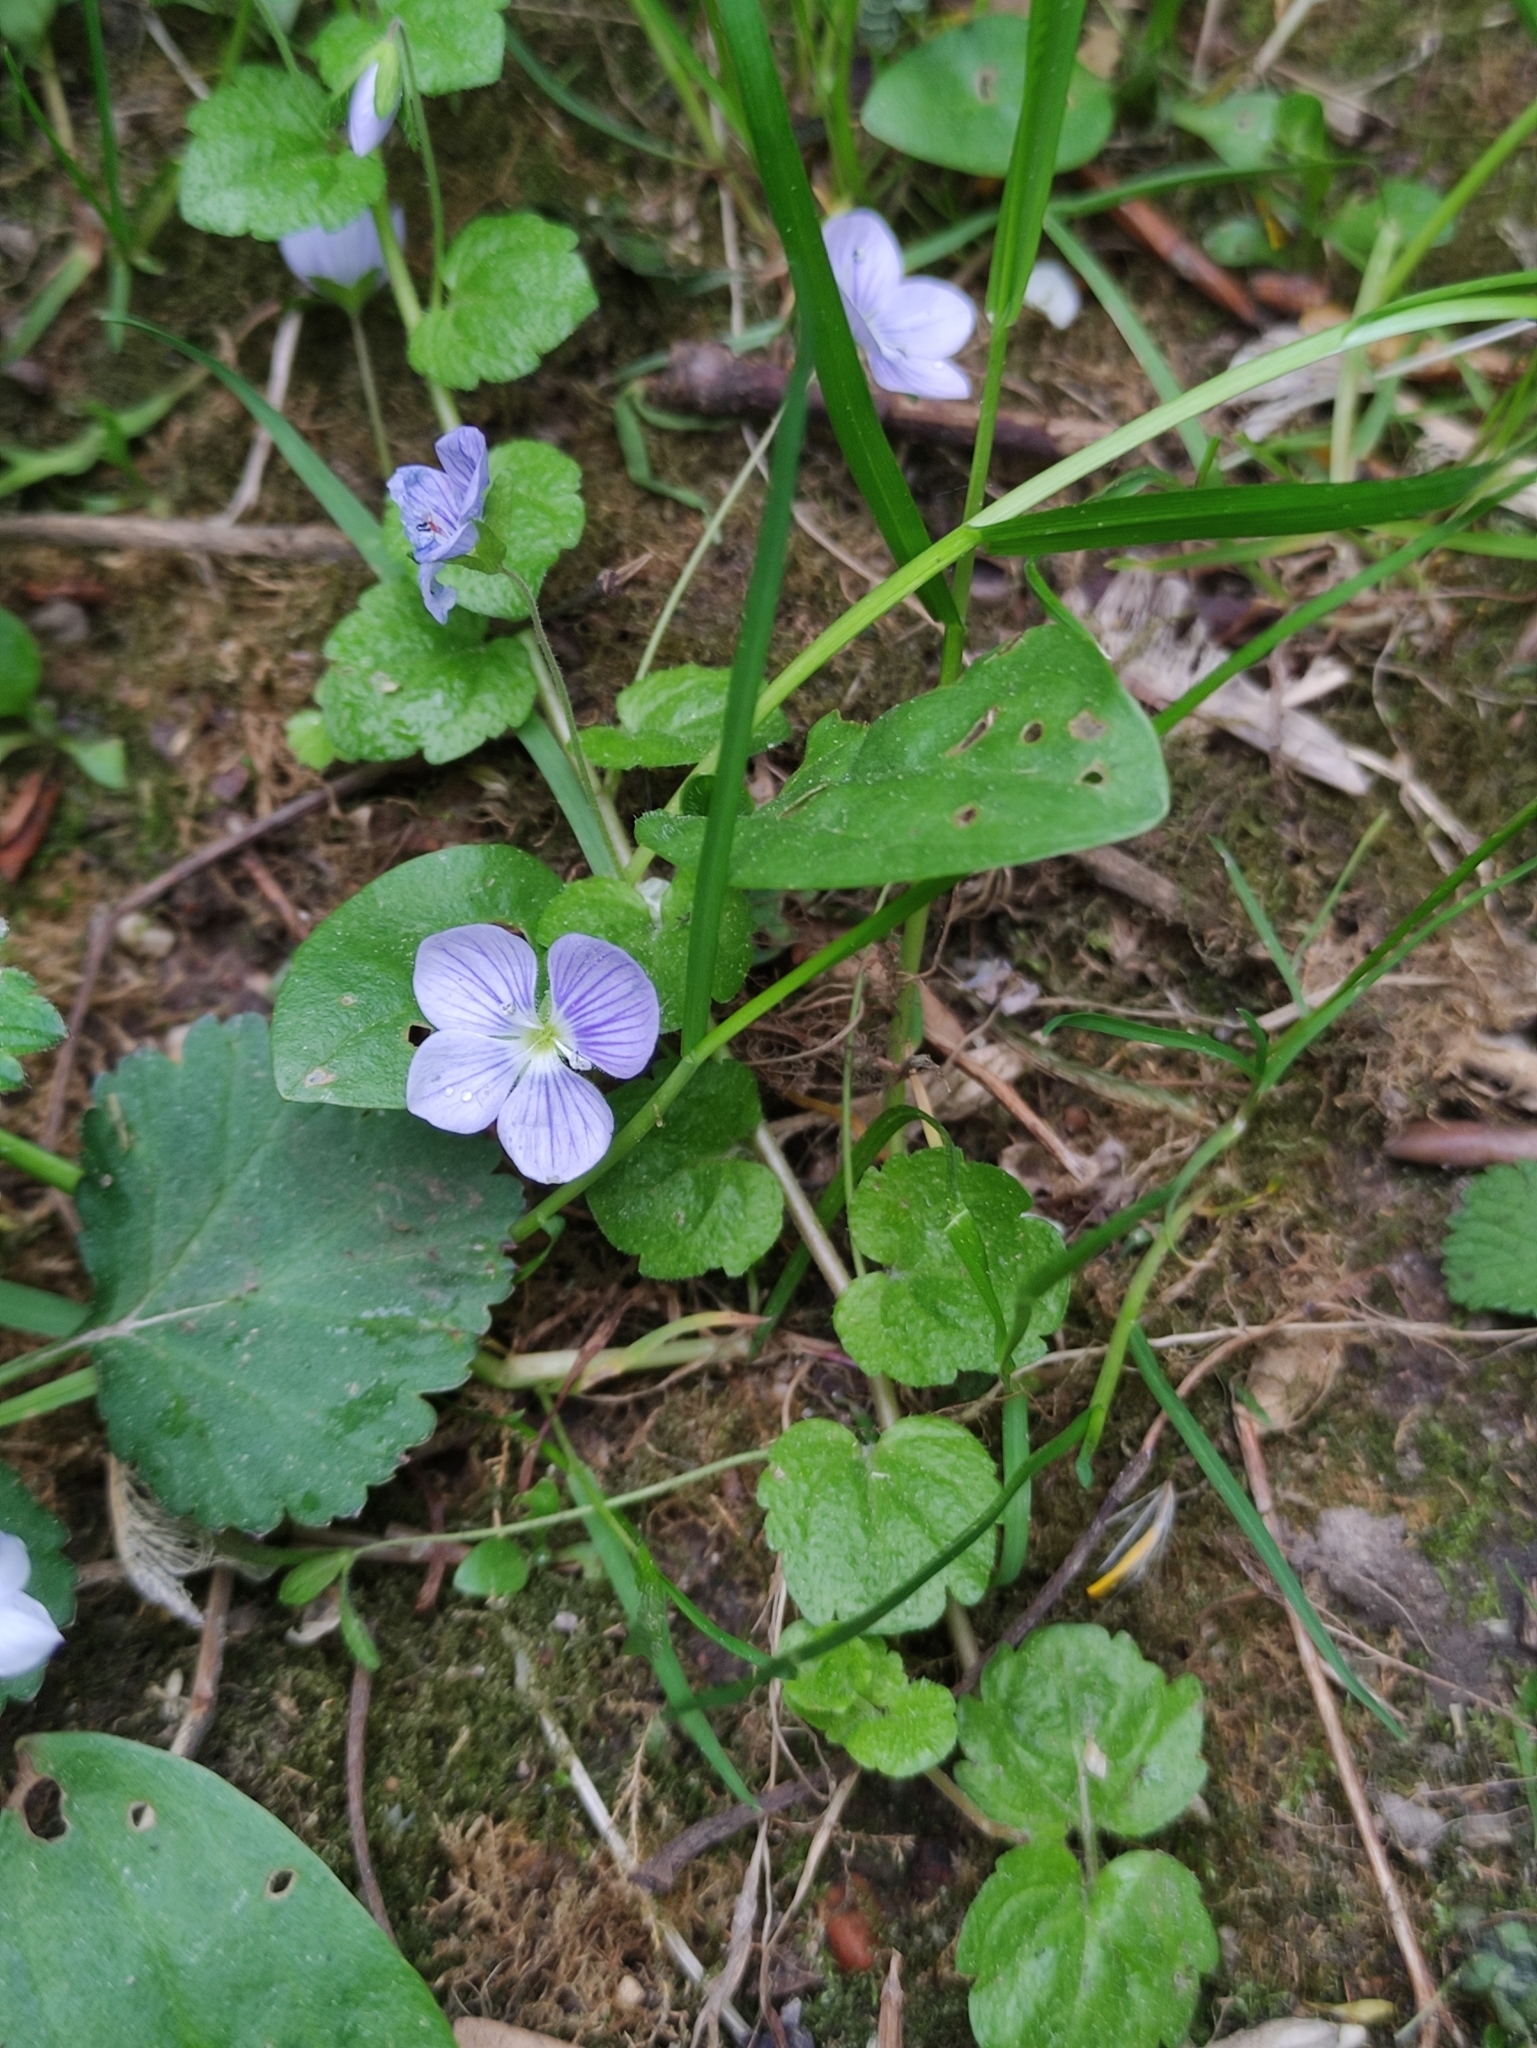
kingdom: Plantae
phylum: Tracheophyta
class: Magnoliopsida
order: Lamiales
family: Plantaginaceae
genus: Veronica
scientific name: Veronica filiformis
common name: Slender speedwell
